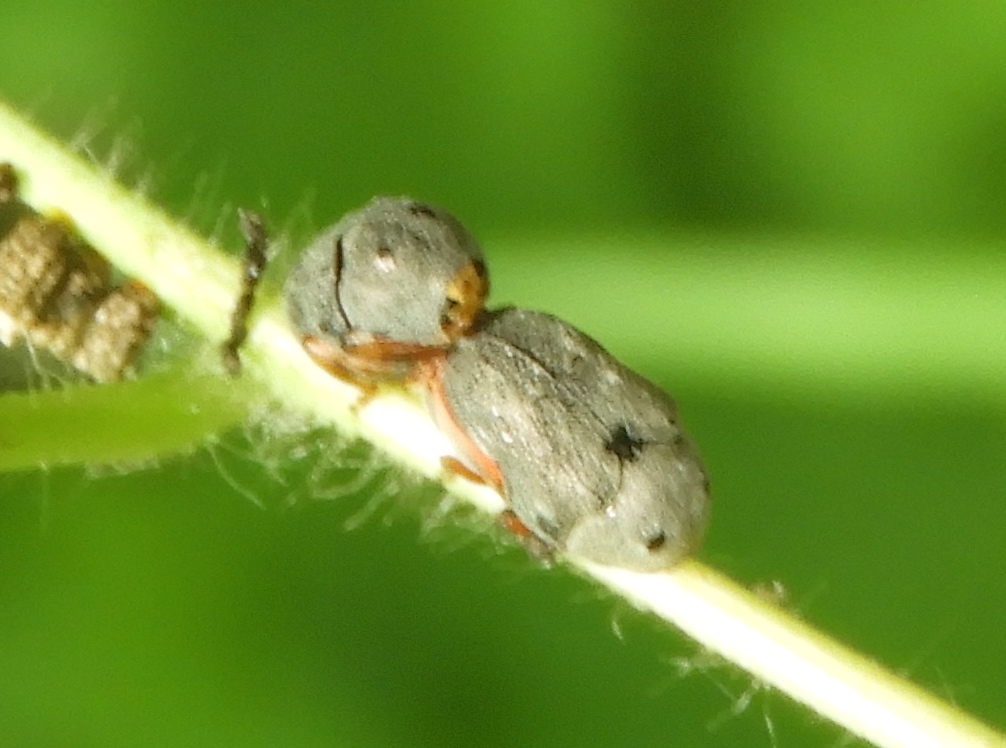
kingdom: Animalia
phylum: Arthropoda
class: Insecta
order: Coleoptera
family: Chrysomelidae
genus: Chlamisus
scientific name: Chlamisus maculipes
